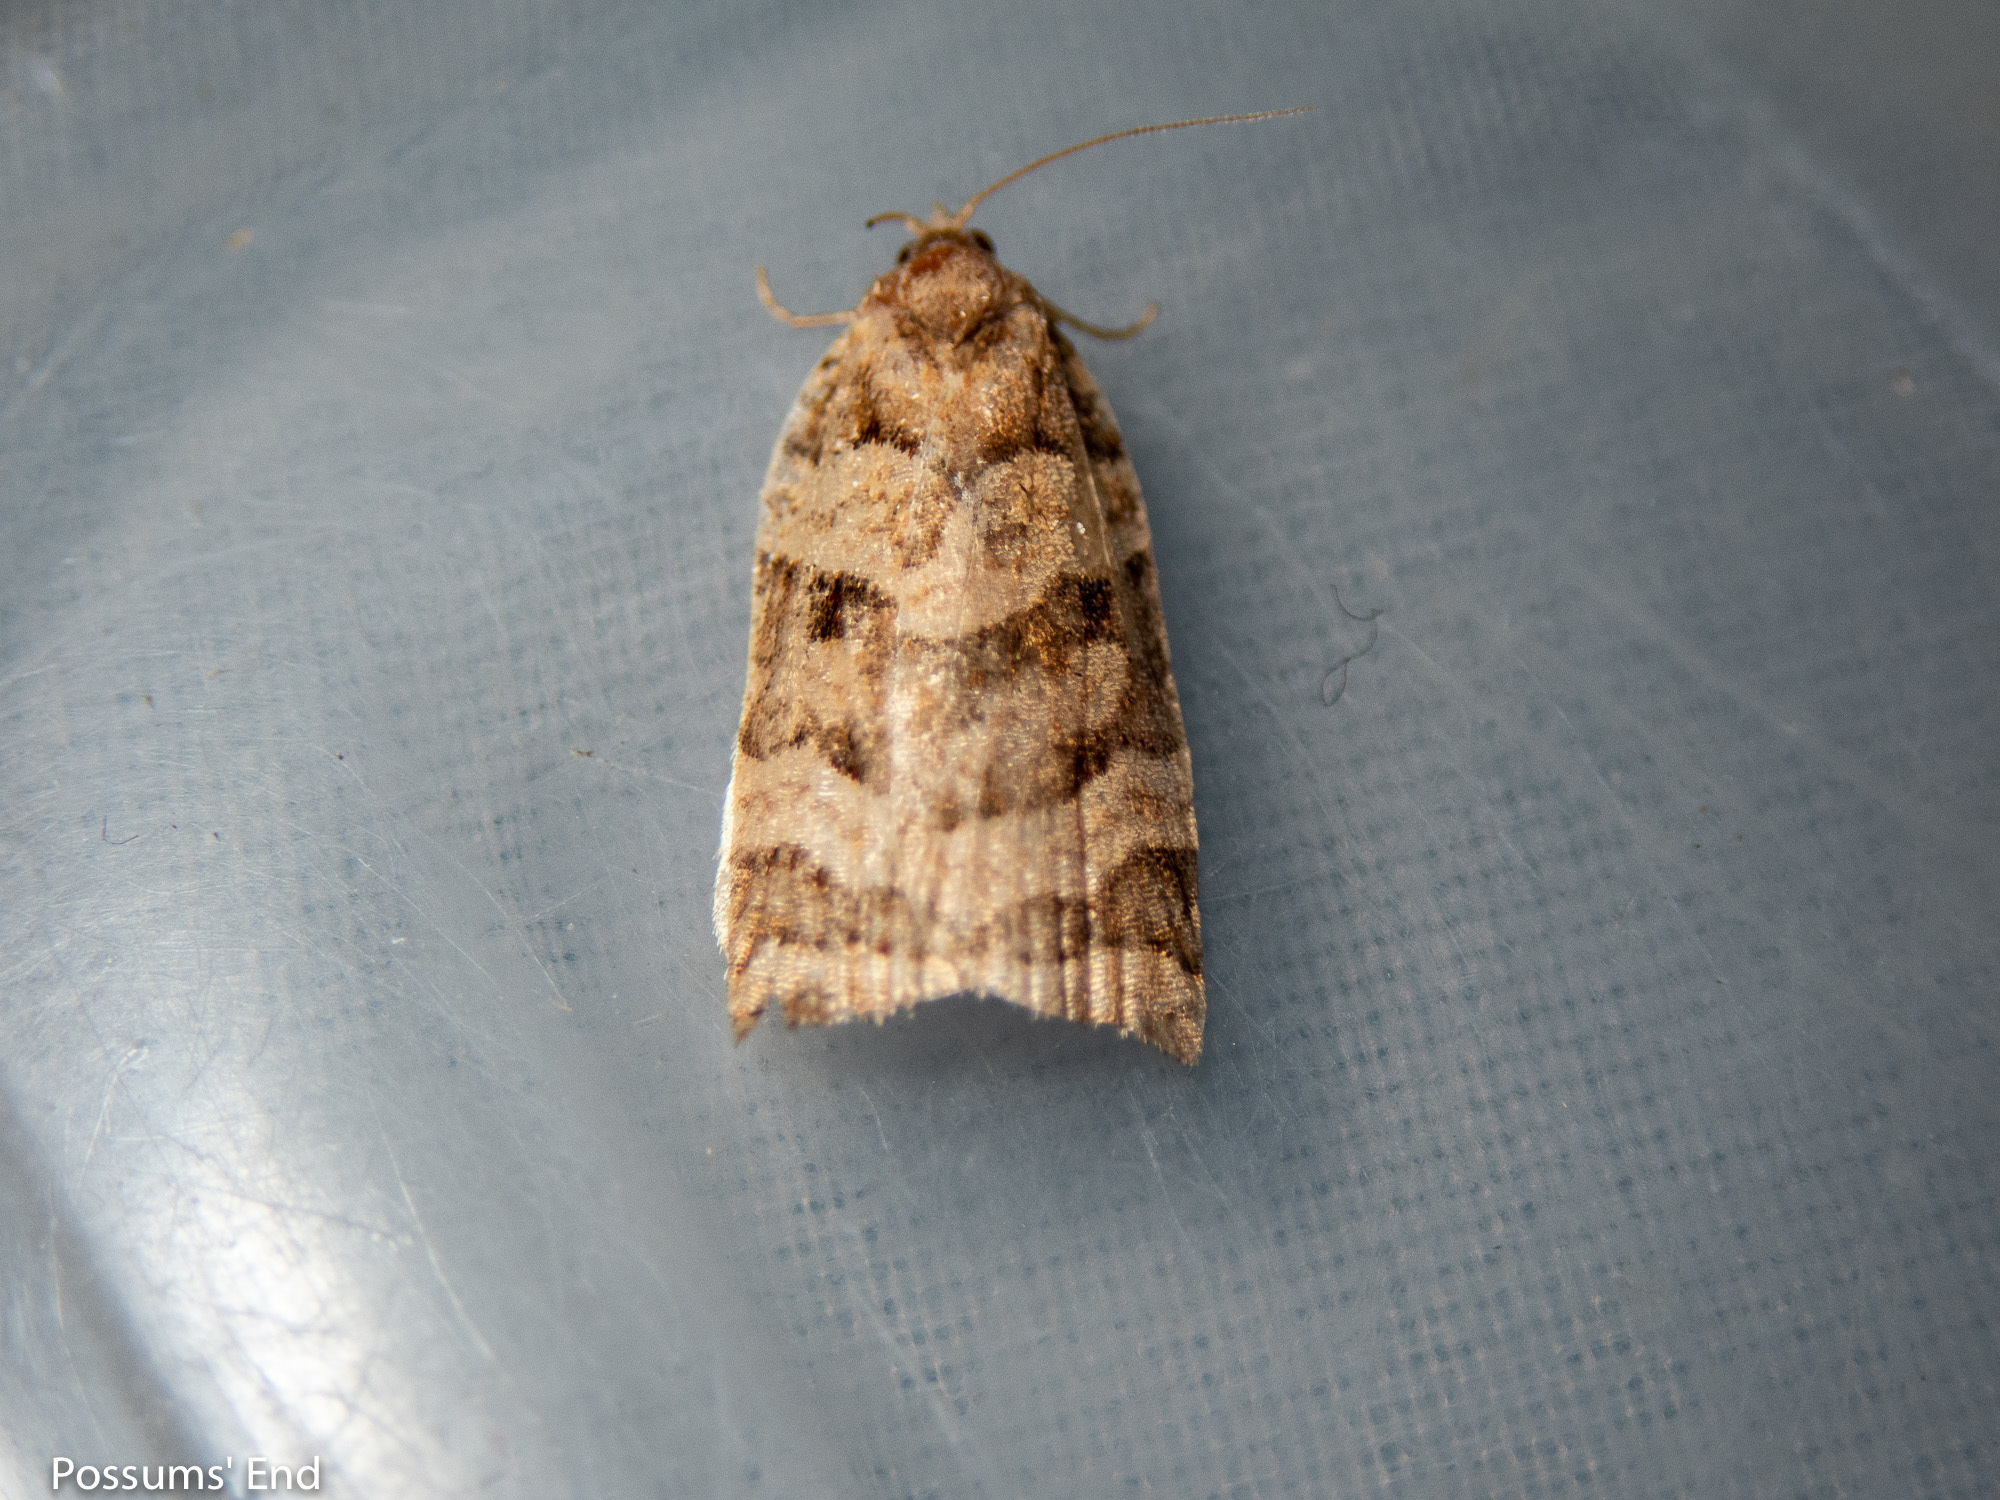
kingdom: Animalia
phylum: Arthropoda
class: Insecta
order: Lepidoptera
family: Tortricidae
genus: Apoctena
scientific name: Apoctena tigris
